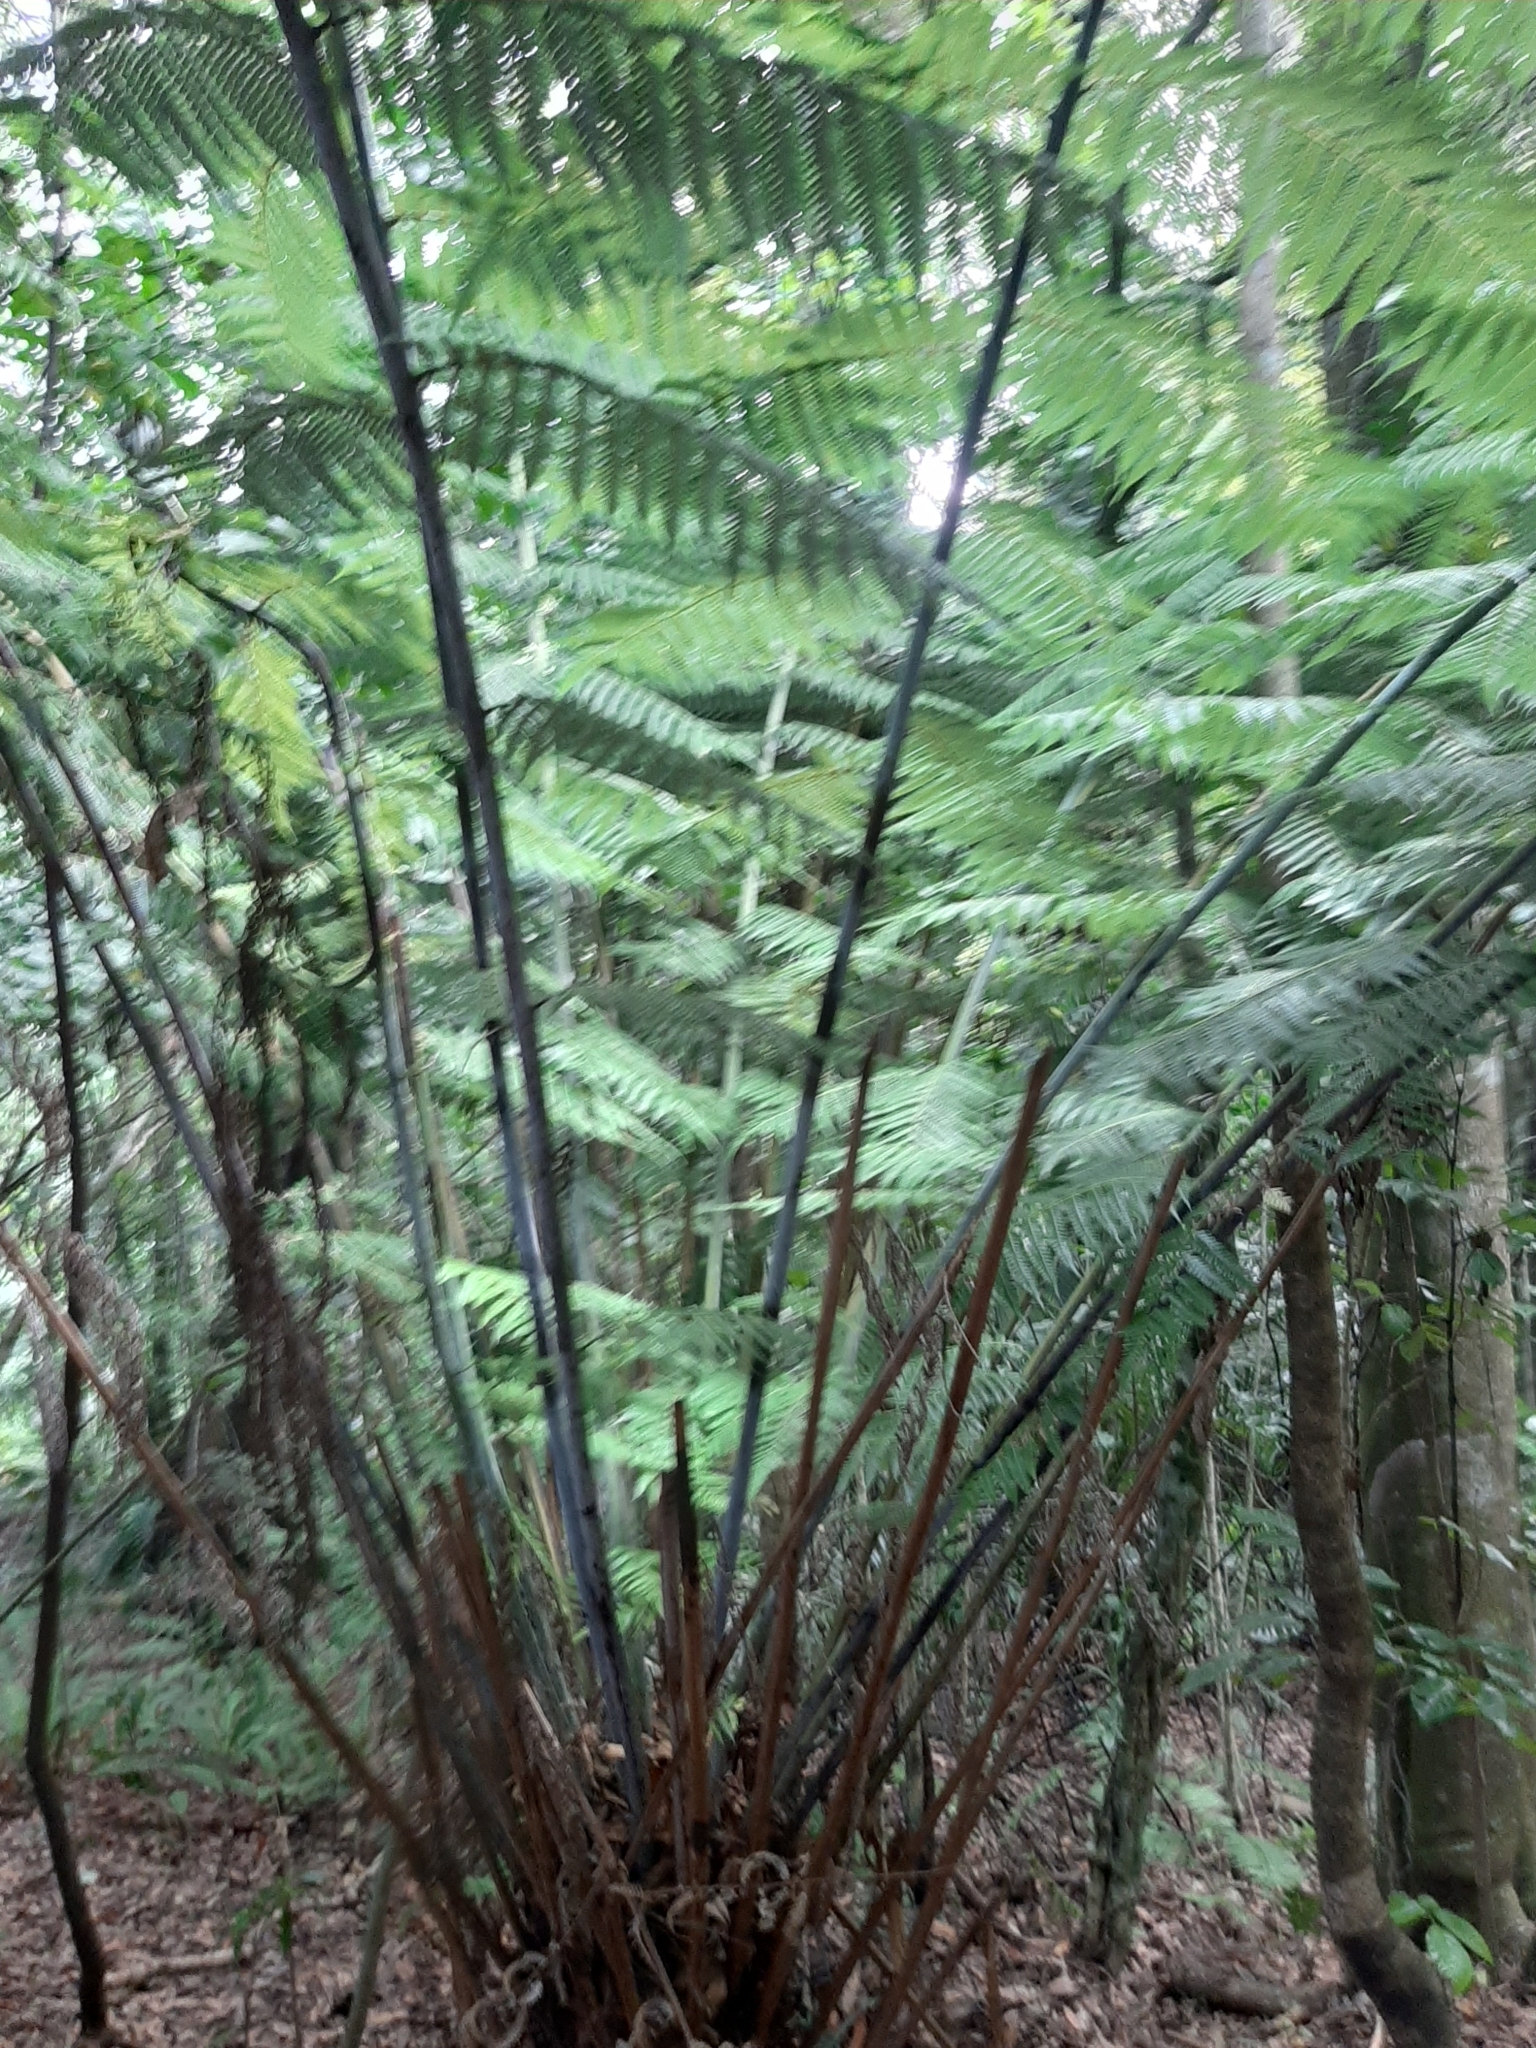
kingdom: Plantae
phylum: Tracheophyta
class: Polypodiopsida
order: Cyatheales
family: Cyatheaceae
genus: Alsophila
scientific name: Alsophila dealbata
